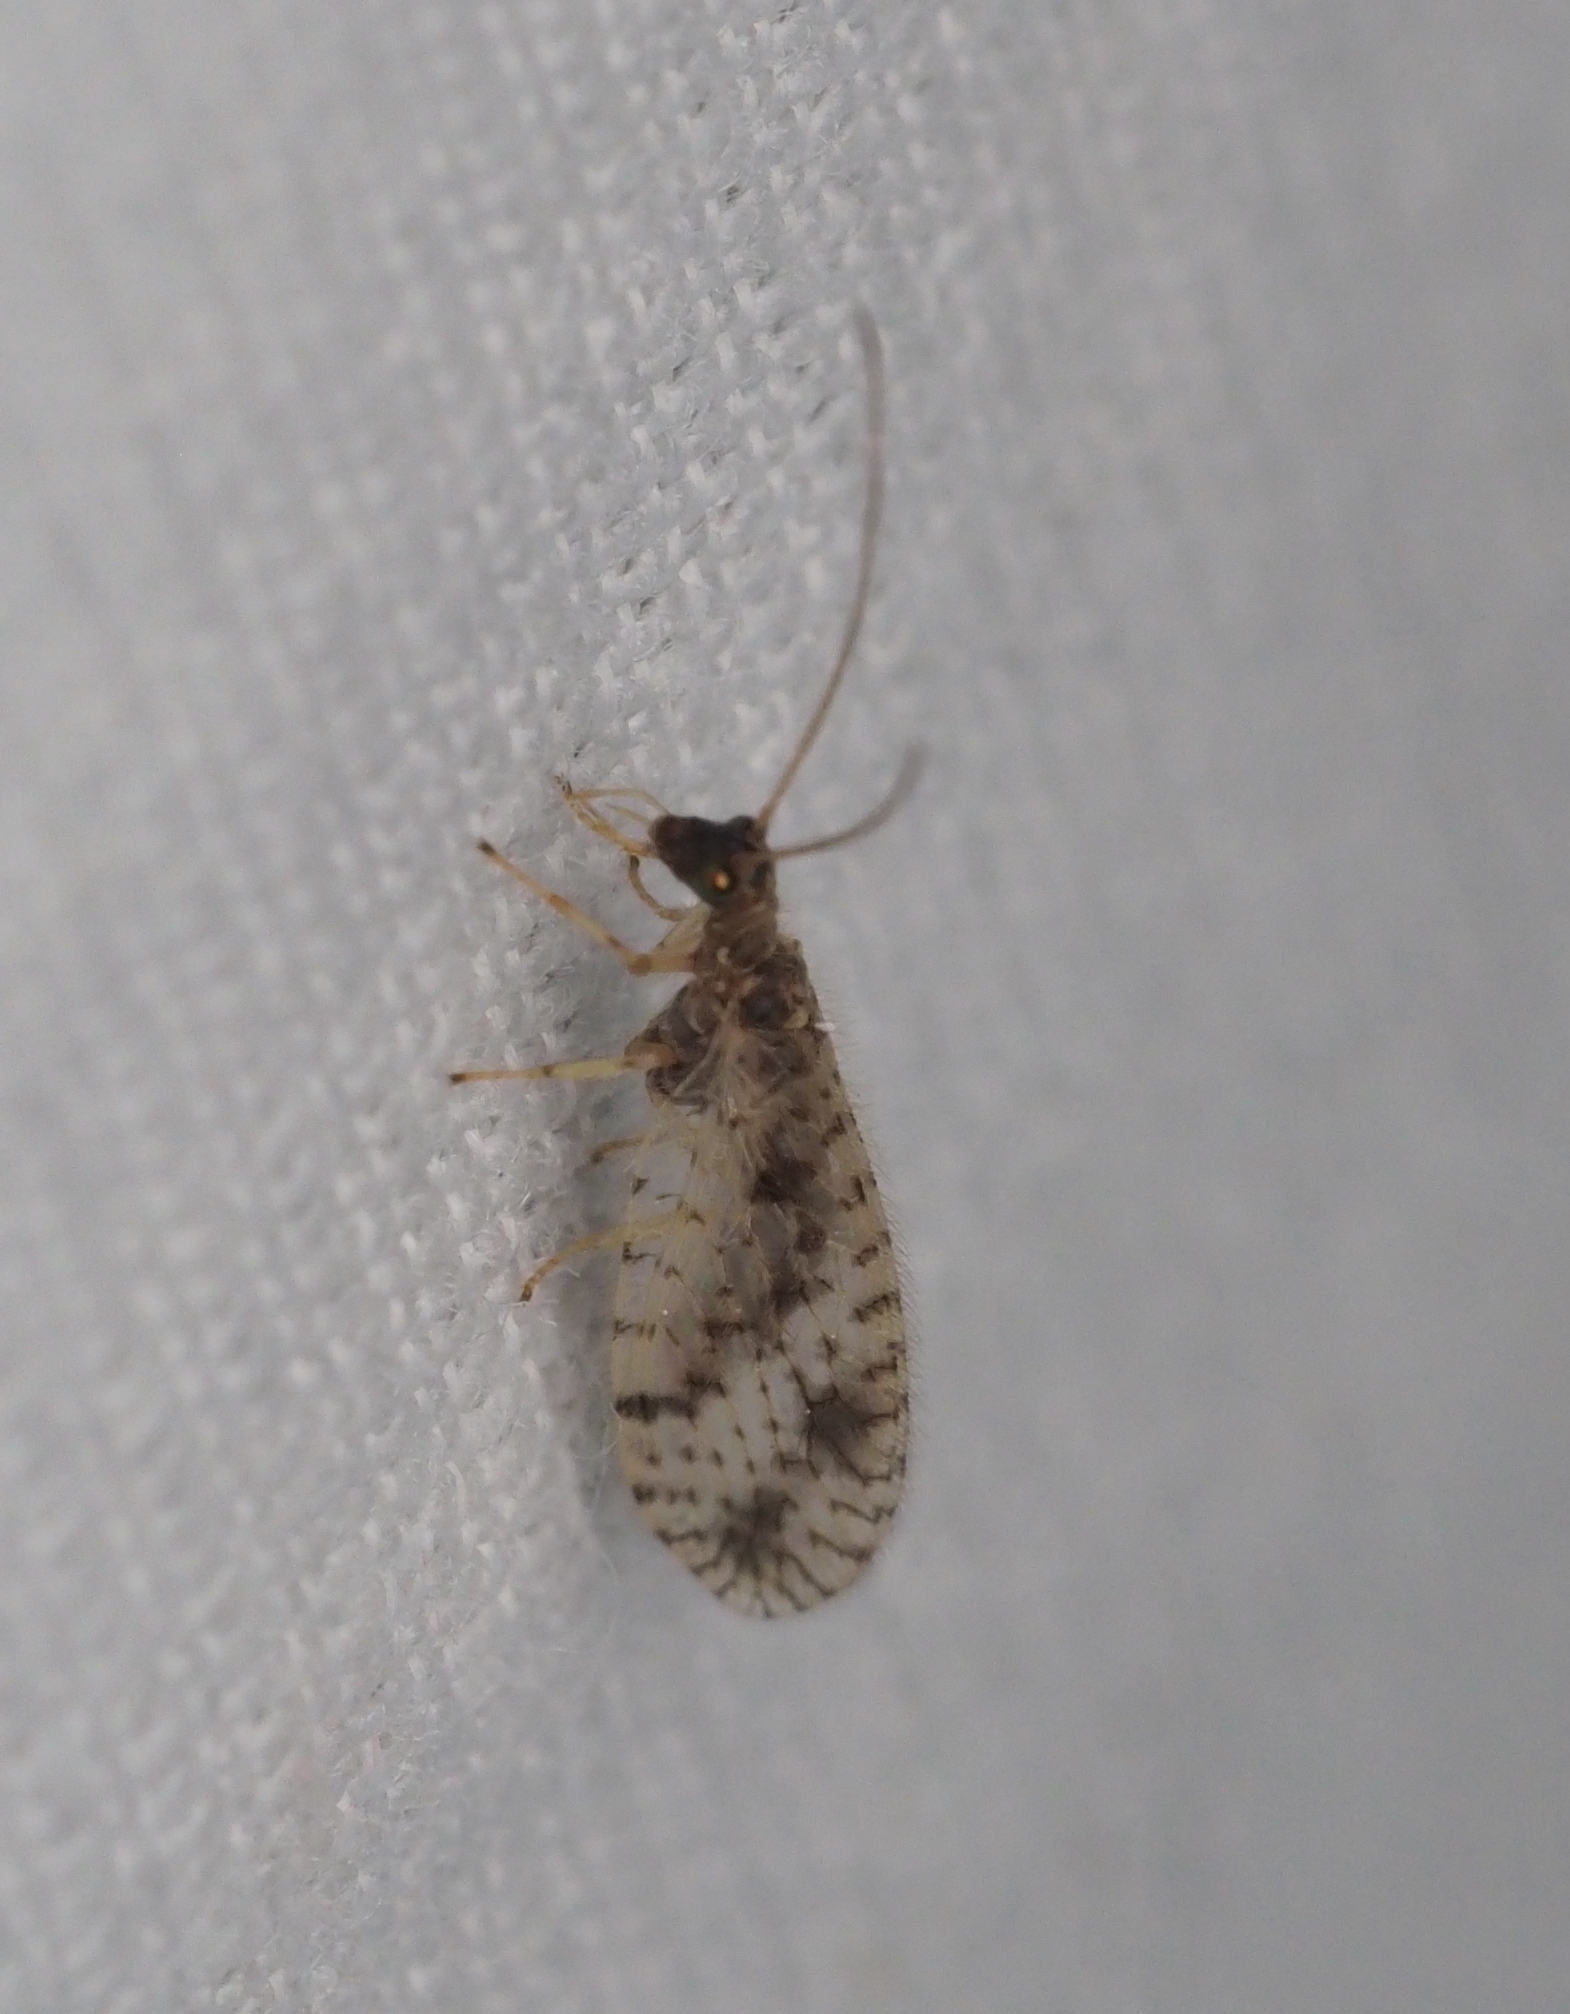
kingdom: Animalia
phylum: Arthropoda
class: Insecta
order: Neuroptera
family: Hemerobiidae
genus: Micromus
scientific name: Micromus variegatus
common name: Brown lacewing
